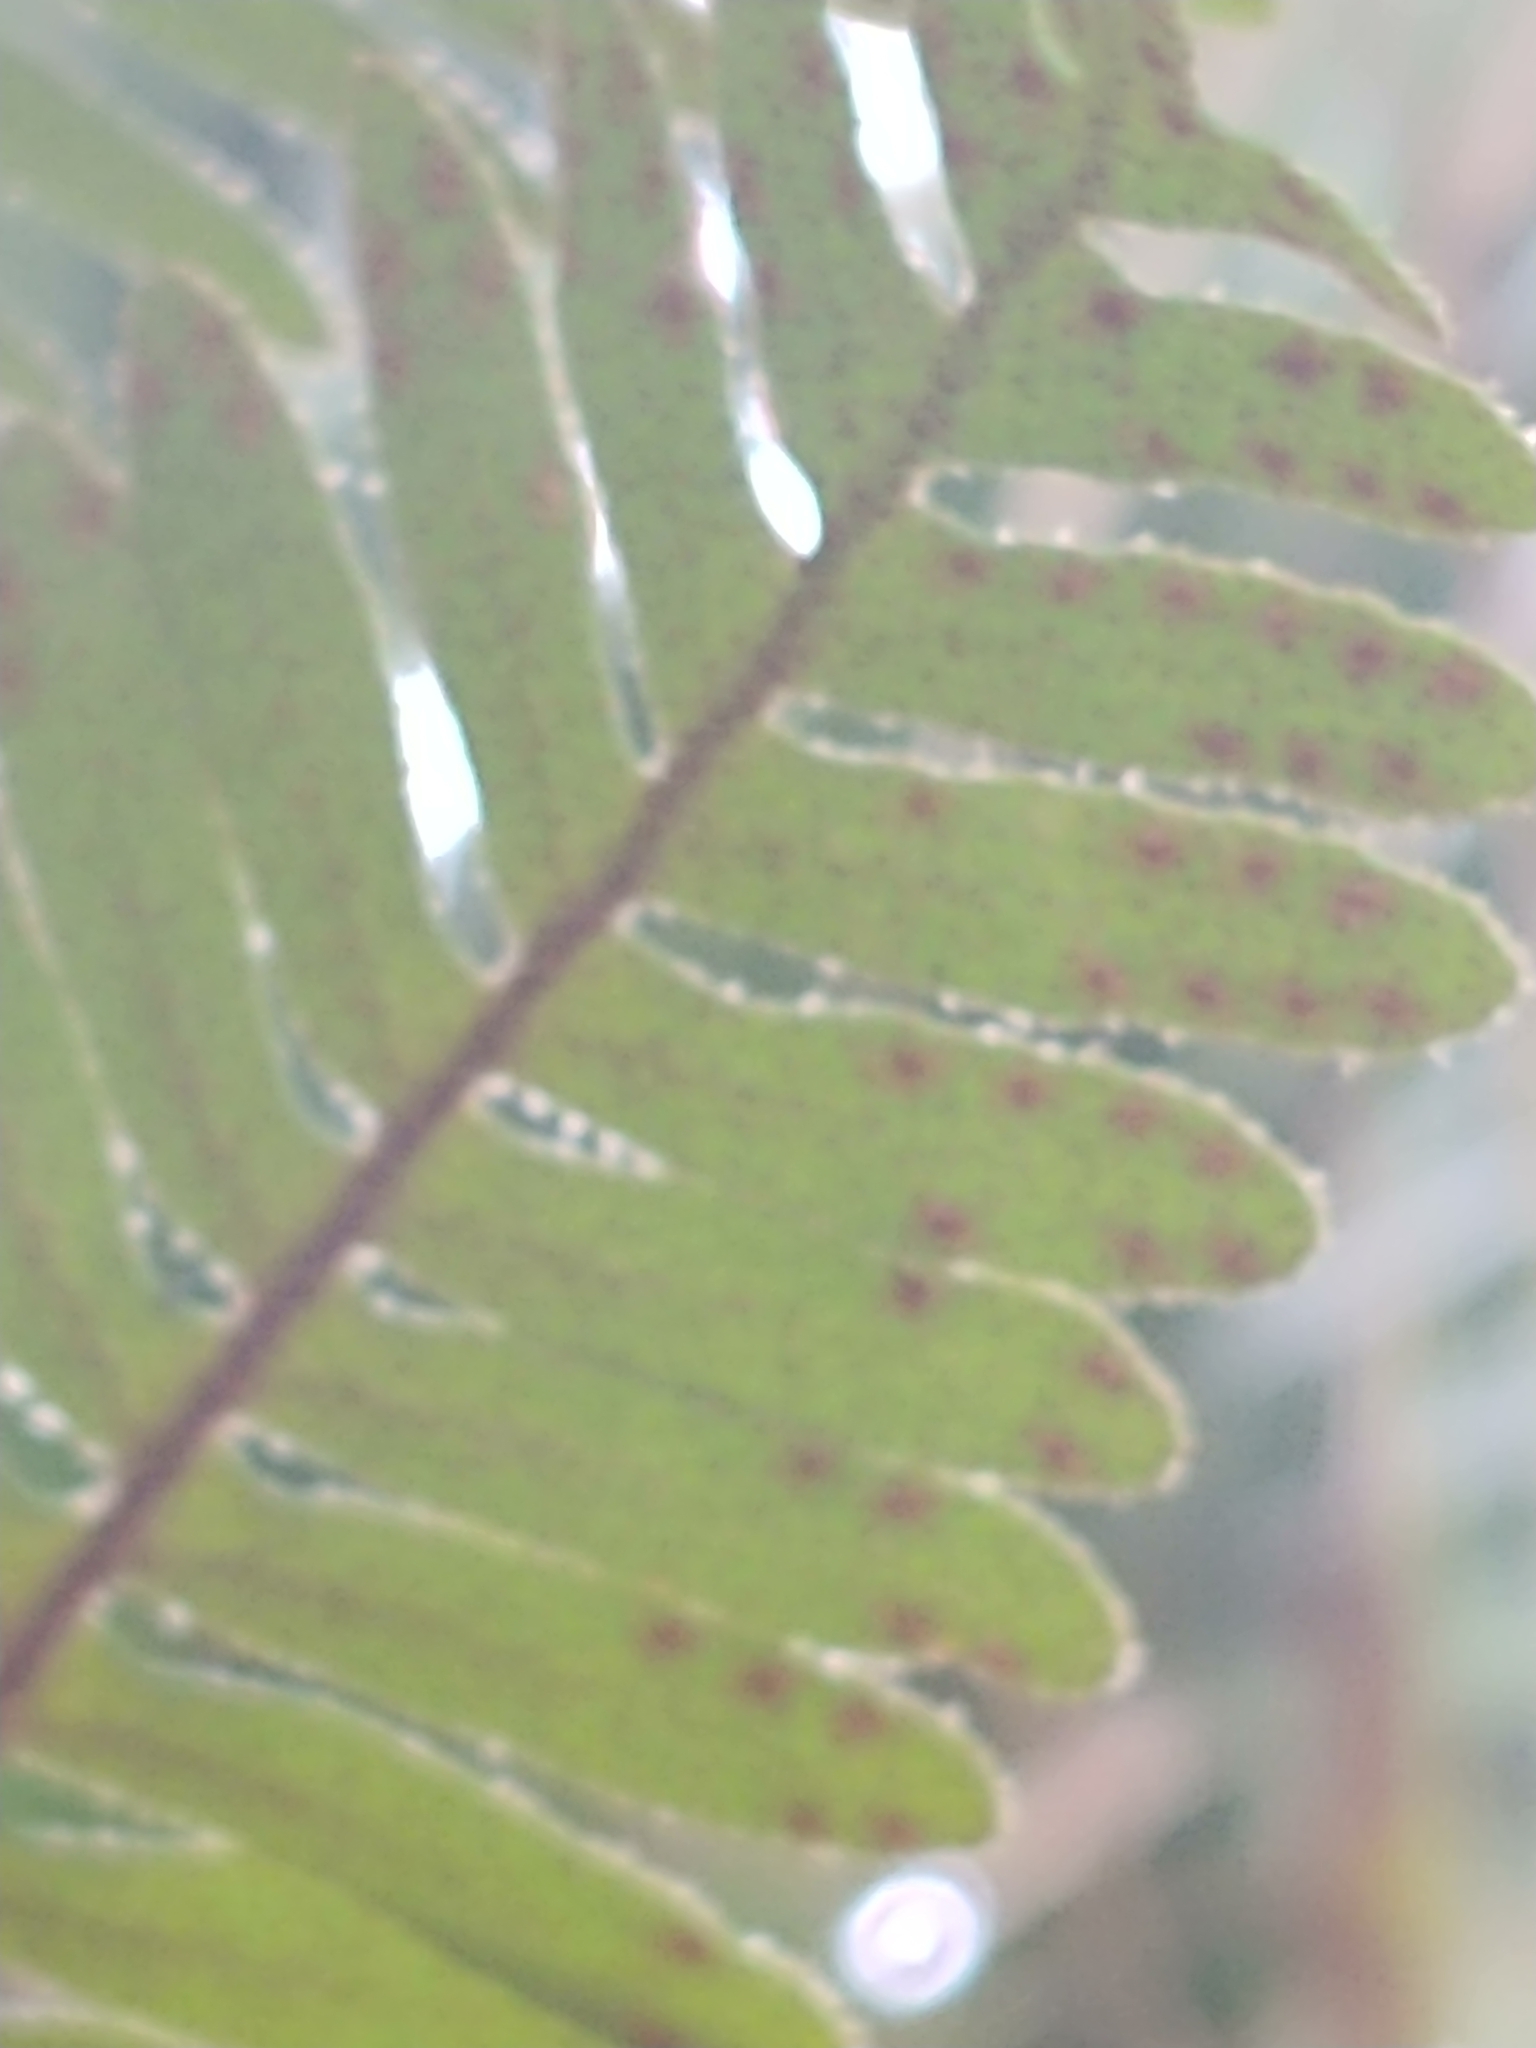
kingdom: Plantae
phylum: Tracheophyta
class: Polypodiopsida
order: Polypodiales
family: Polypodiaceae
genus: Pleopeltis
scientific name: Pleopeltis michauxiana
